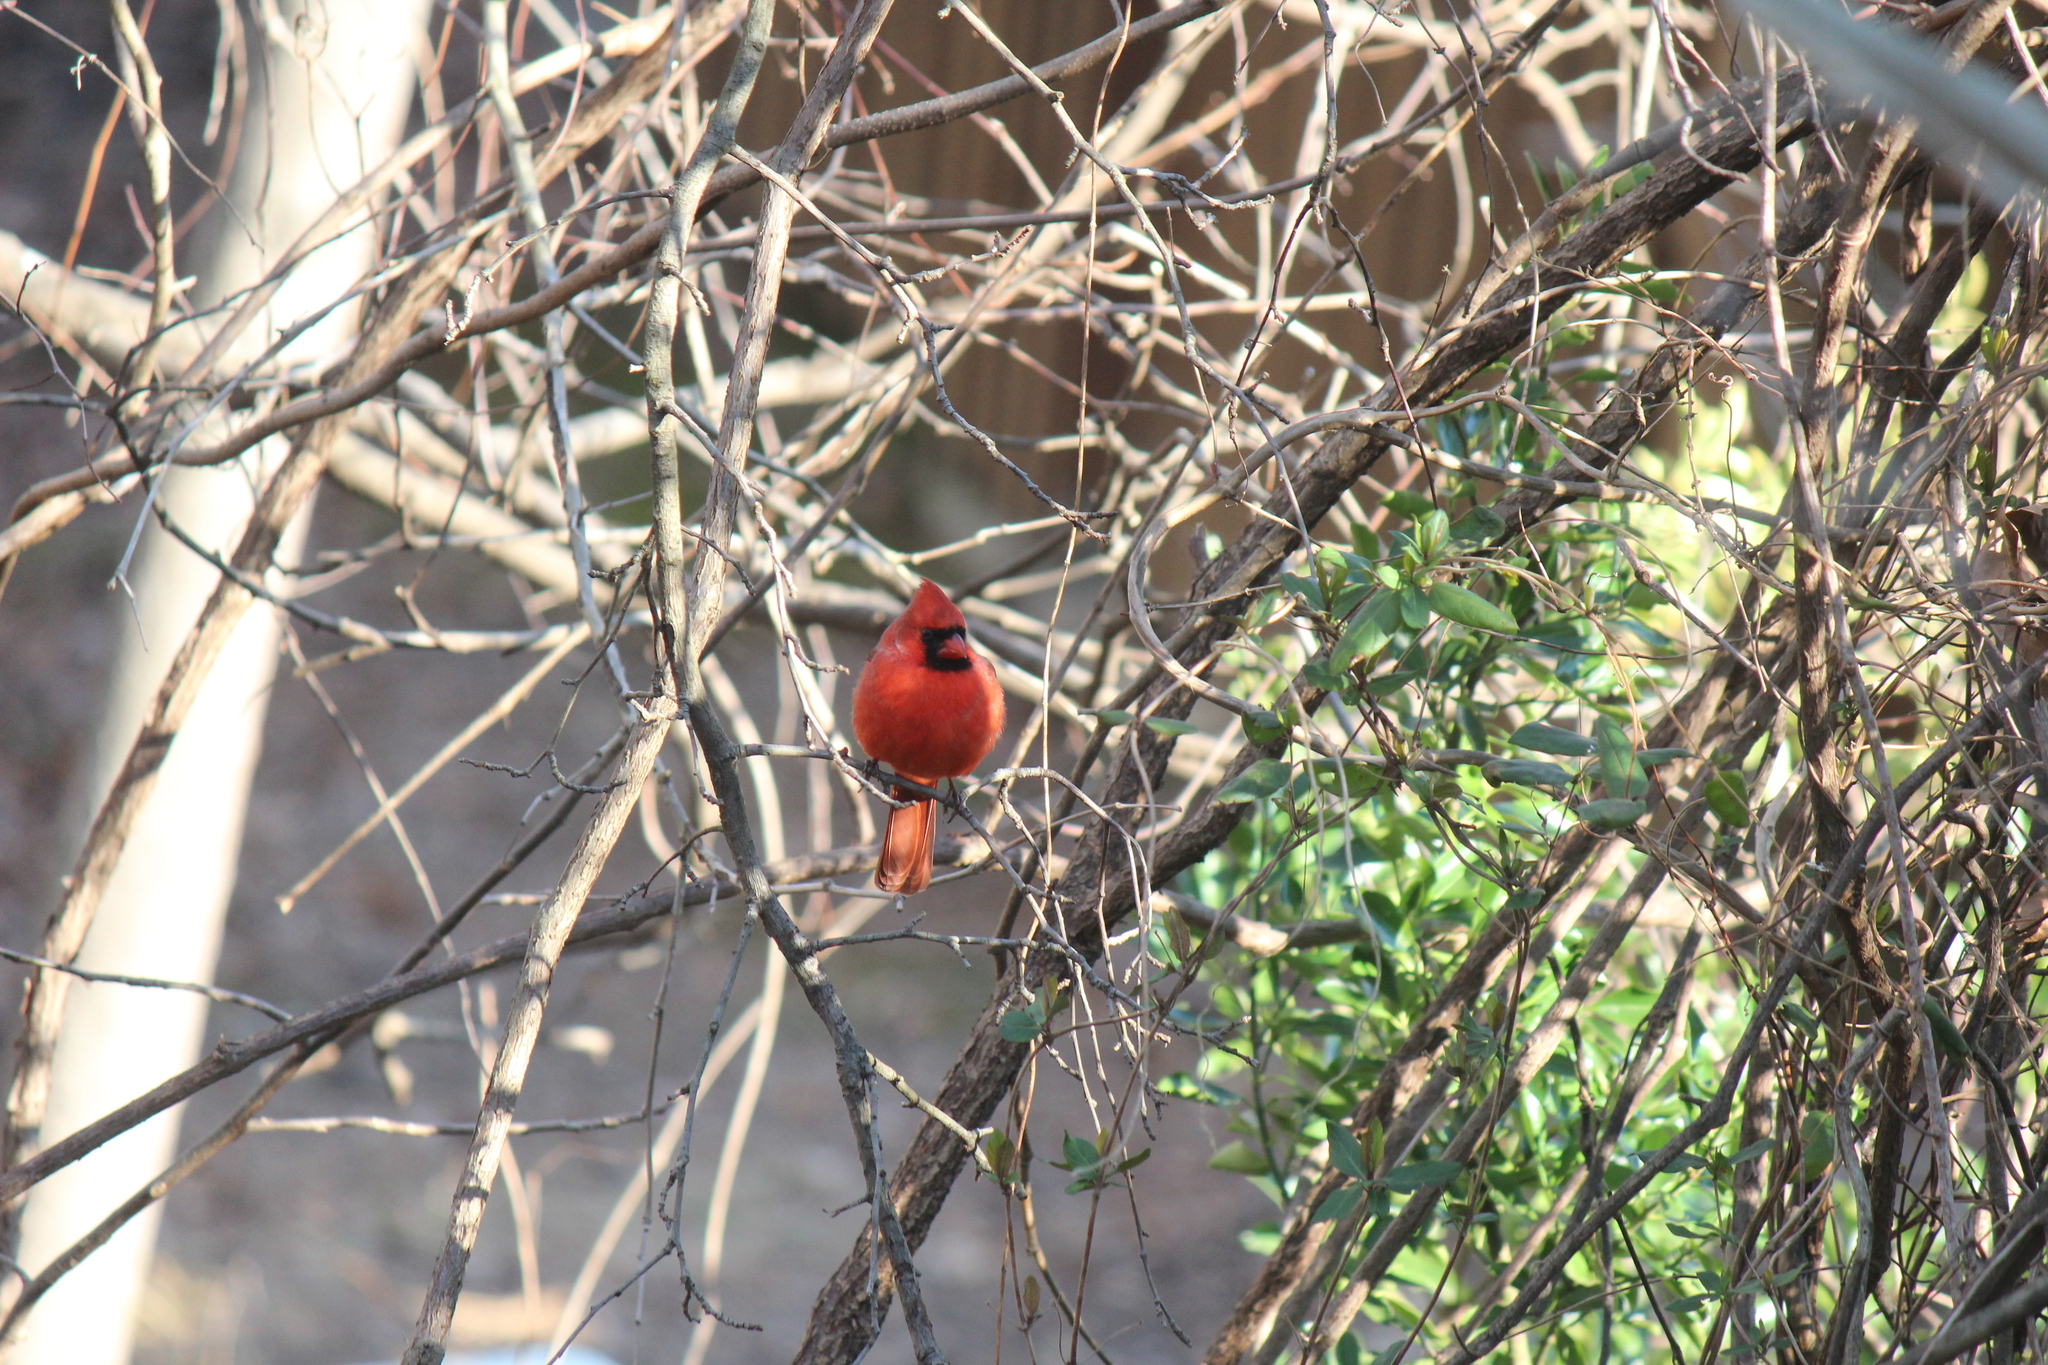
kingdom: Animalia
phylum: Chordata
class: Aves
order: Passeriformes
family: Cardinalidae
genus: Cardinalis
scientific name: Cardinalis cardinalis
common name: Northern cardinal
